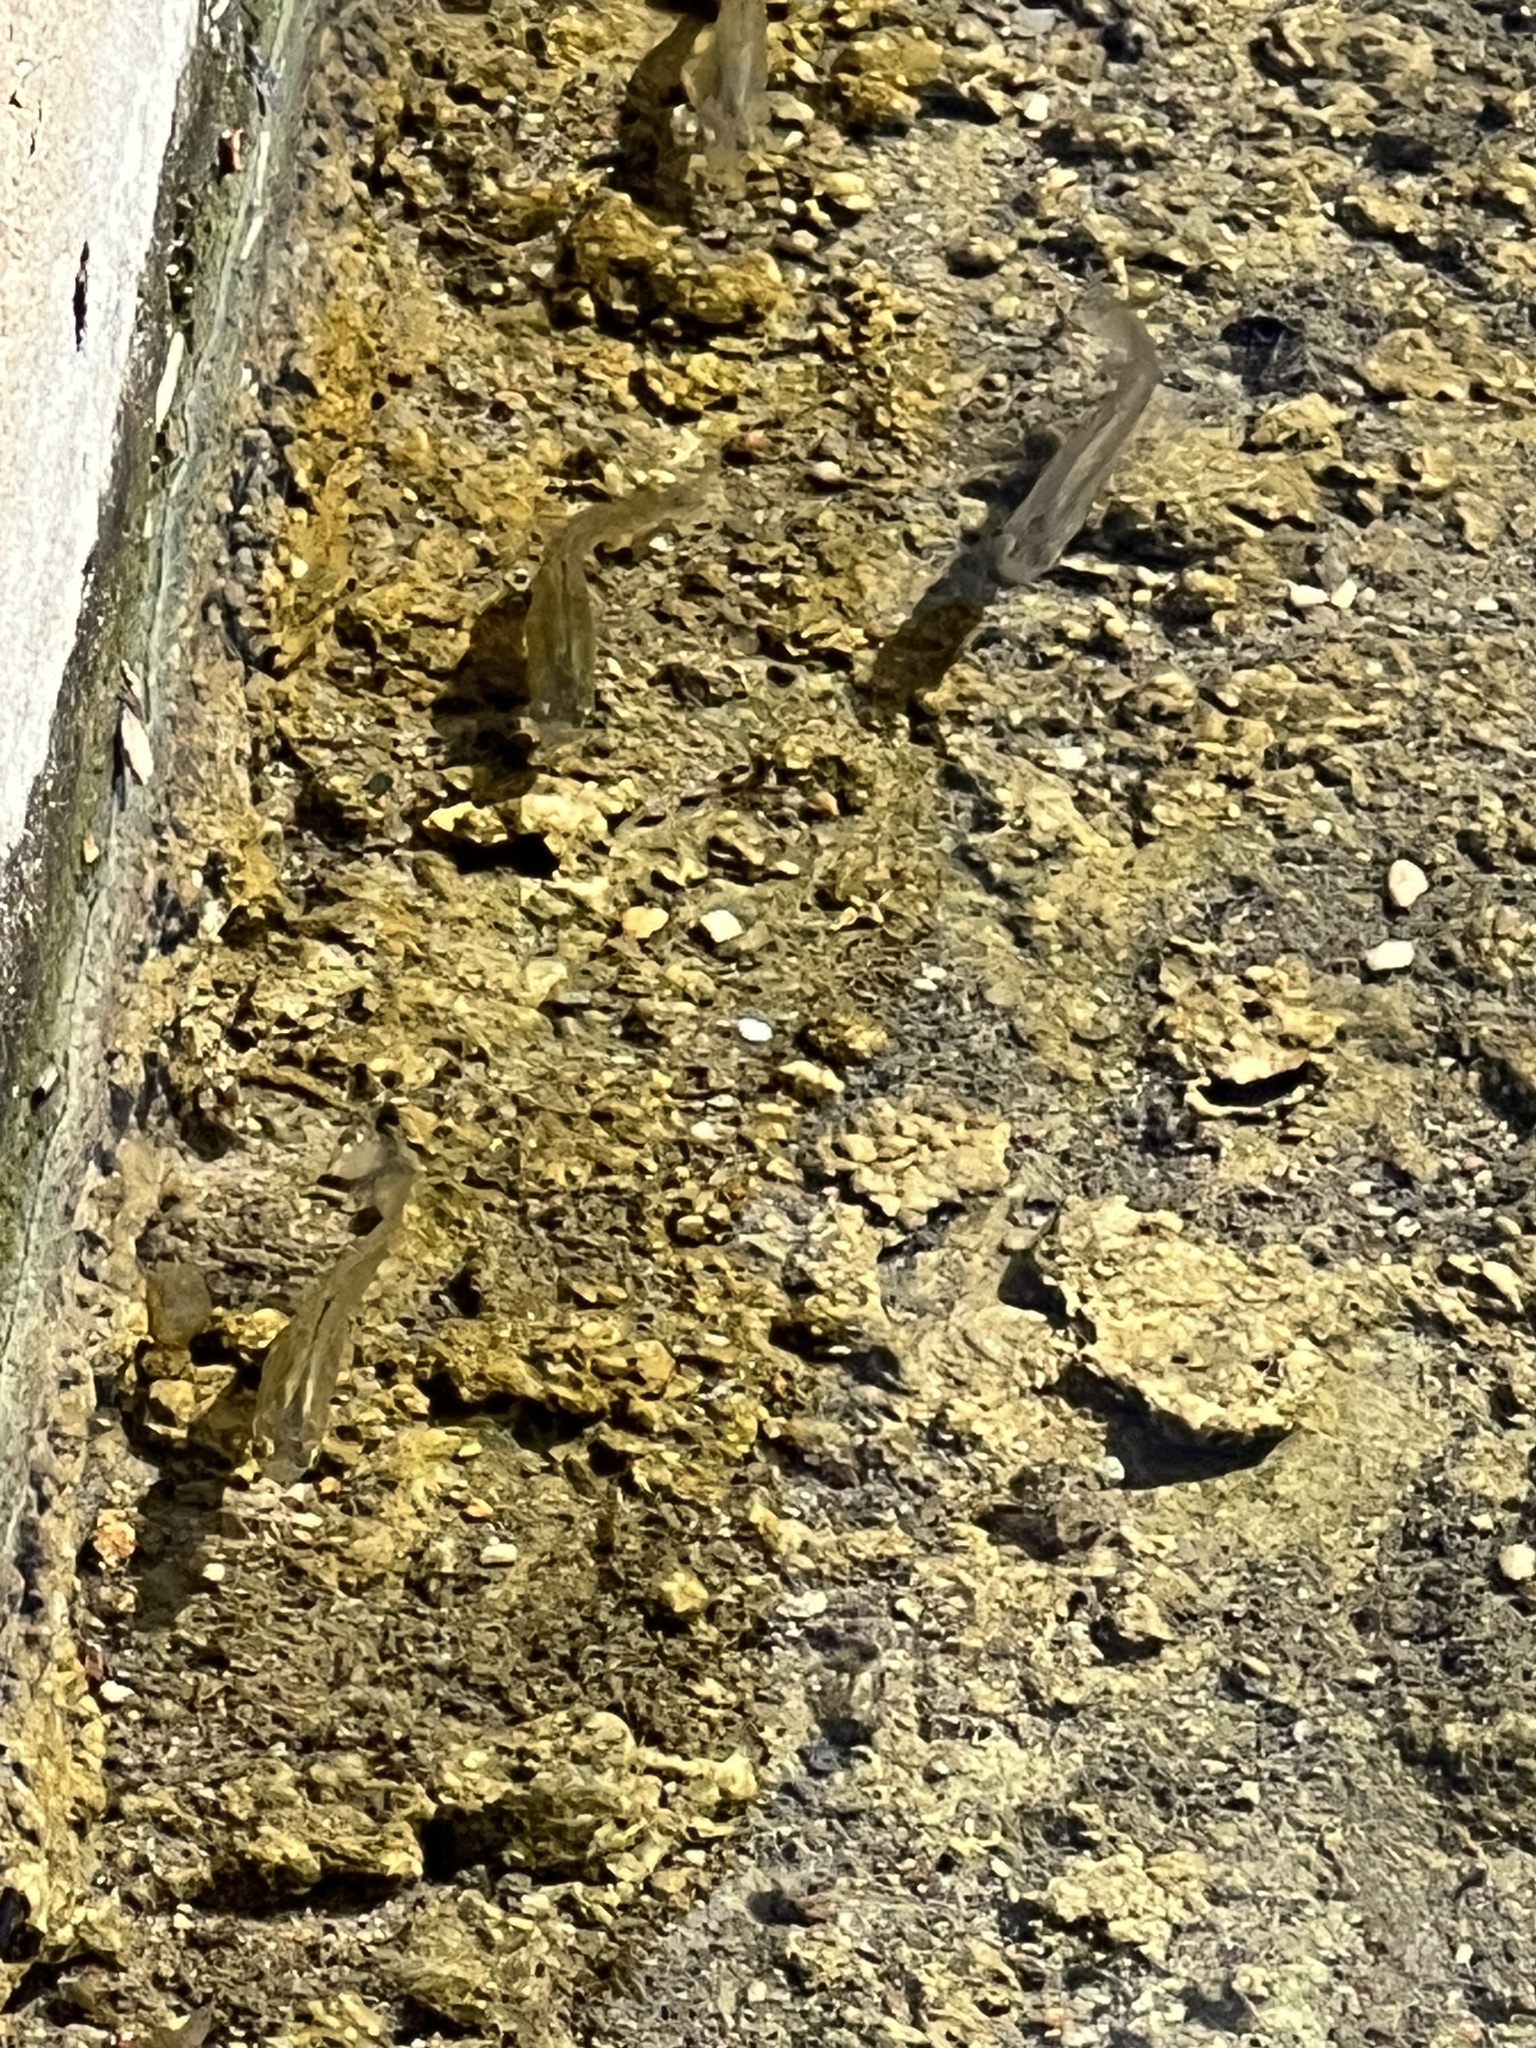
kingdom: Animalia
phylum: Chordata
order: Cyprinodontiformes
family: Poeciliidae
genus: Gambusia
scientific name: Gambusia affinis
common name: Mosquitofish
